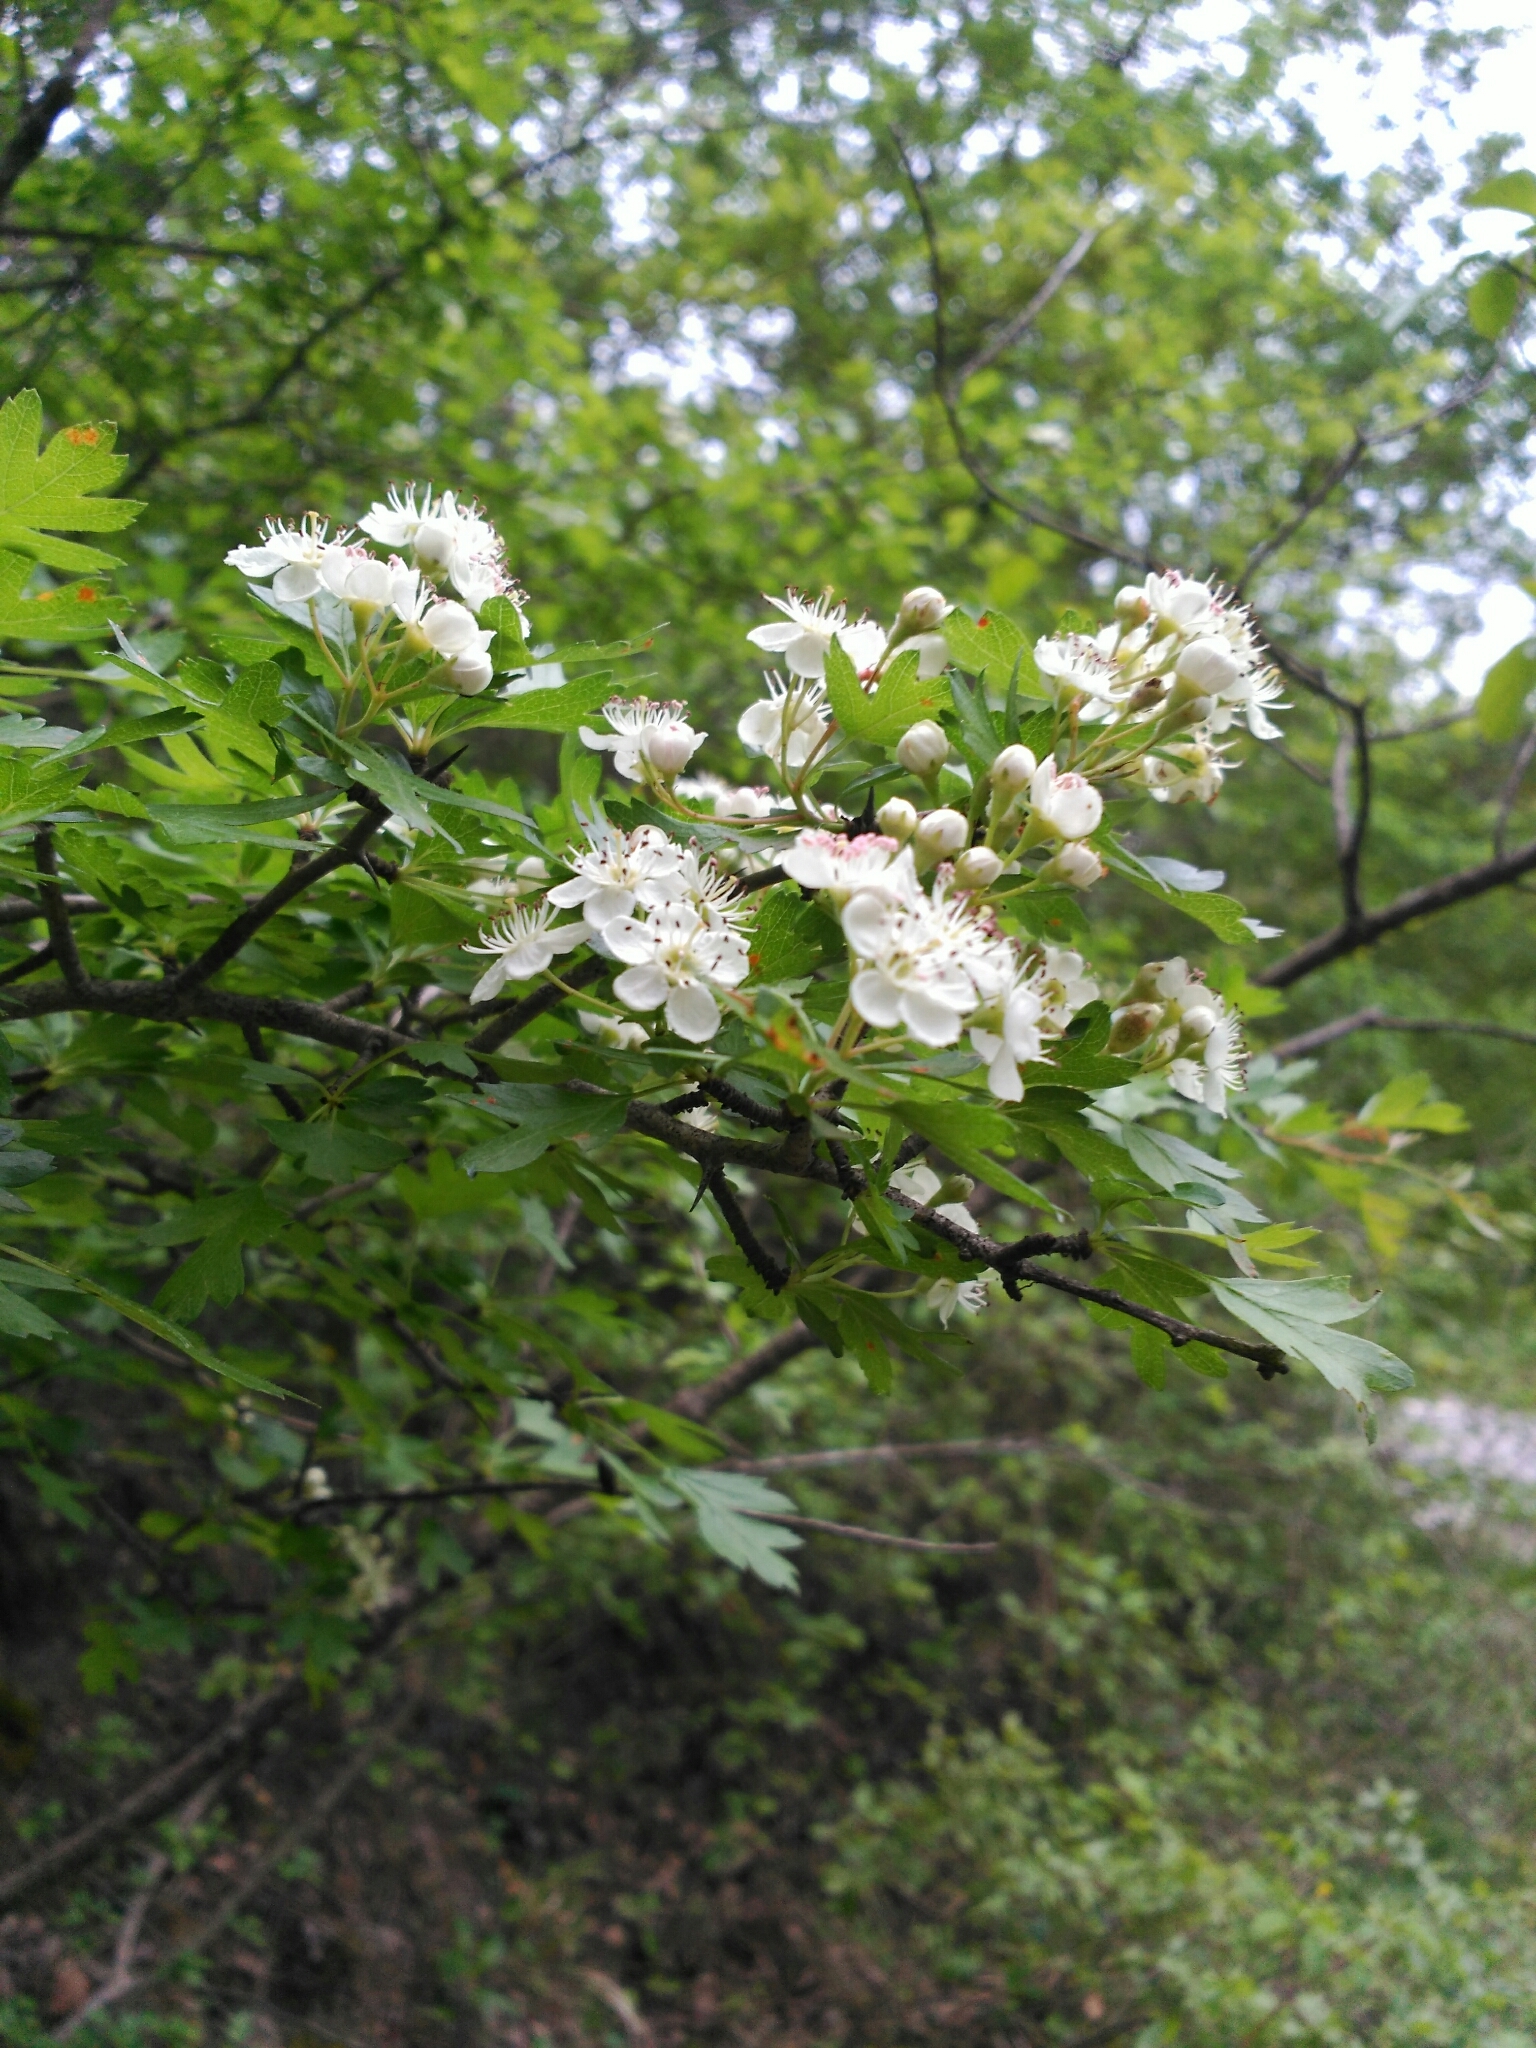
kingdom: Plantae
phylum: Tracheophyta
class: Magnoliopsida
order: Rosales
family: Rosaceae
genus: Crataegus
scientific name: Crataegus monogyna
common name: Hawthorn
